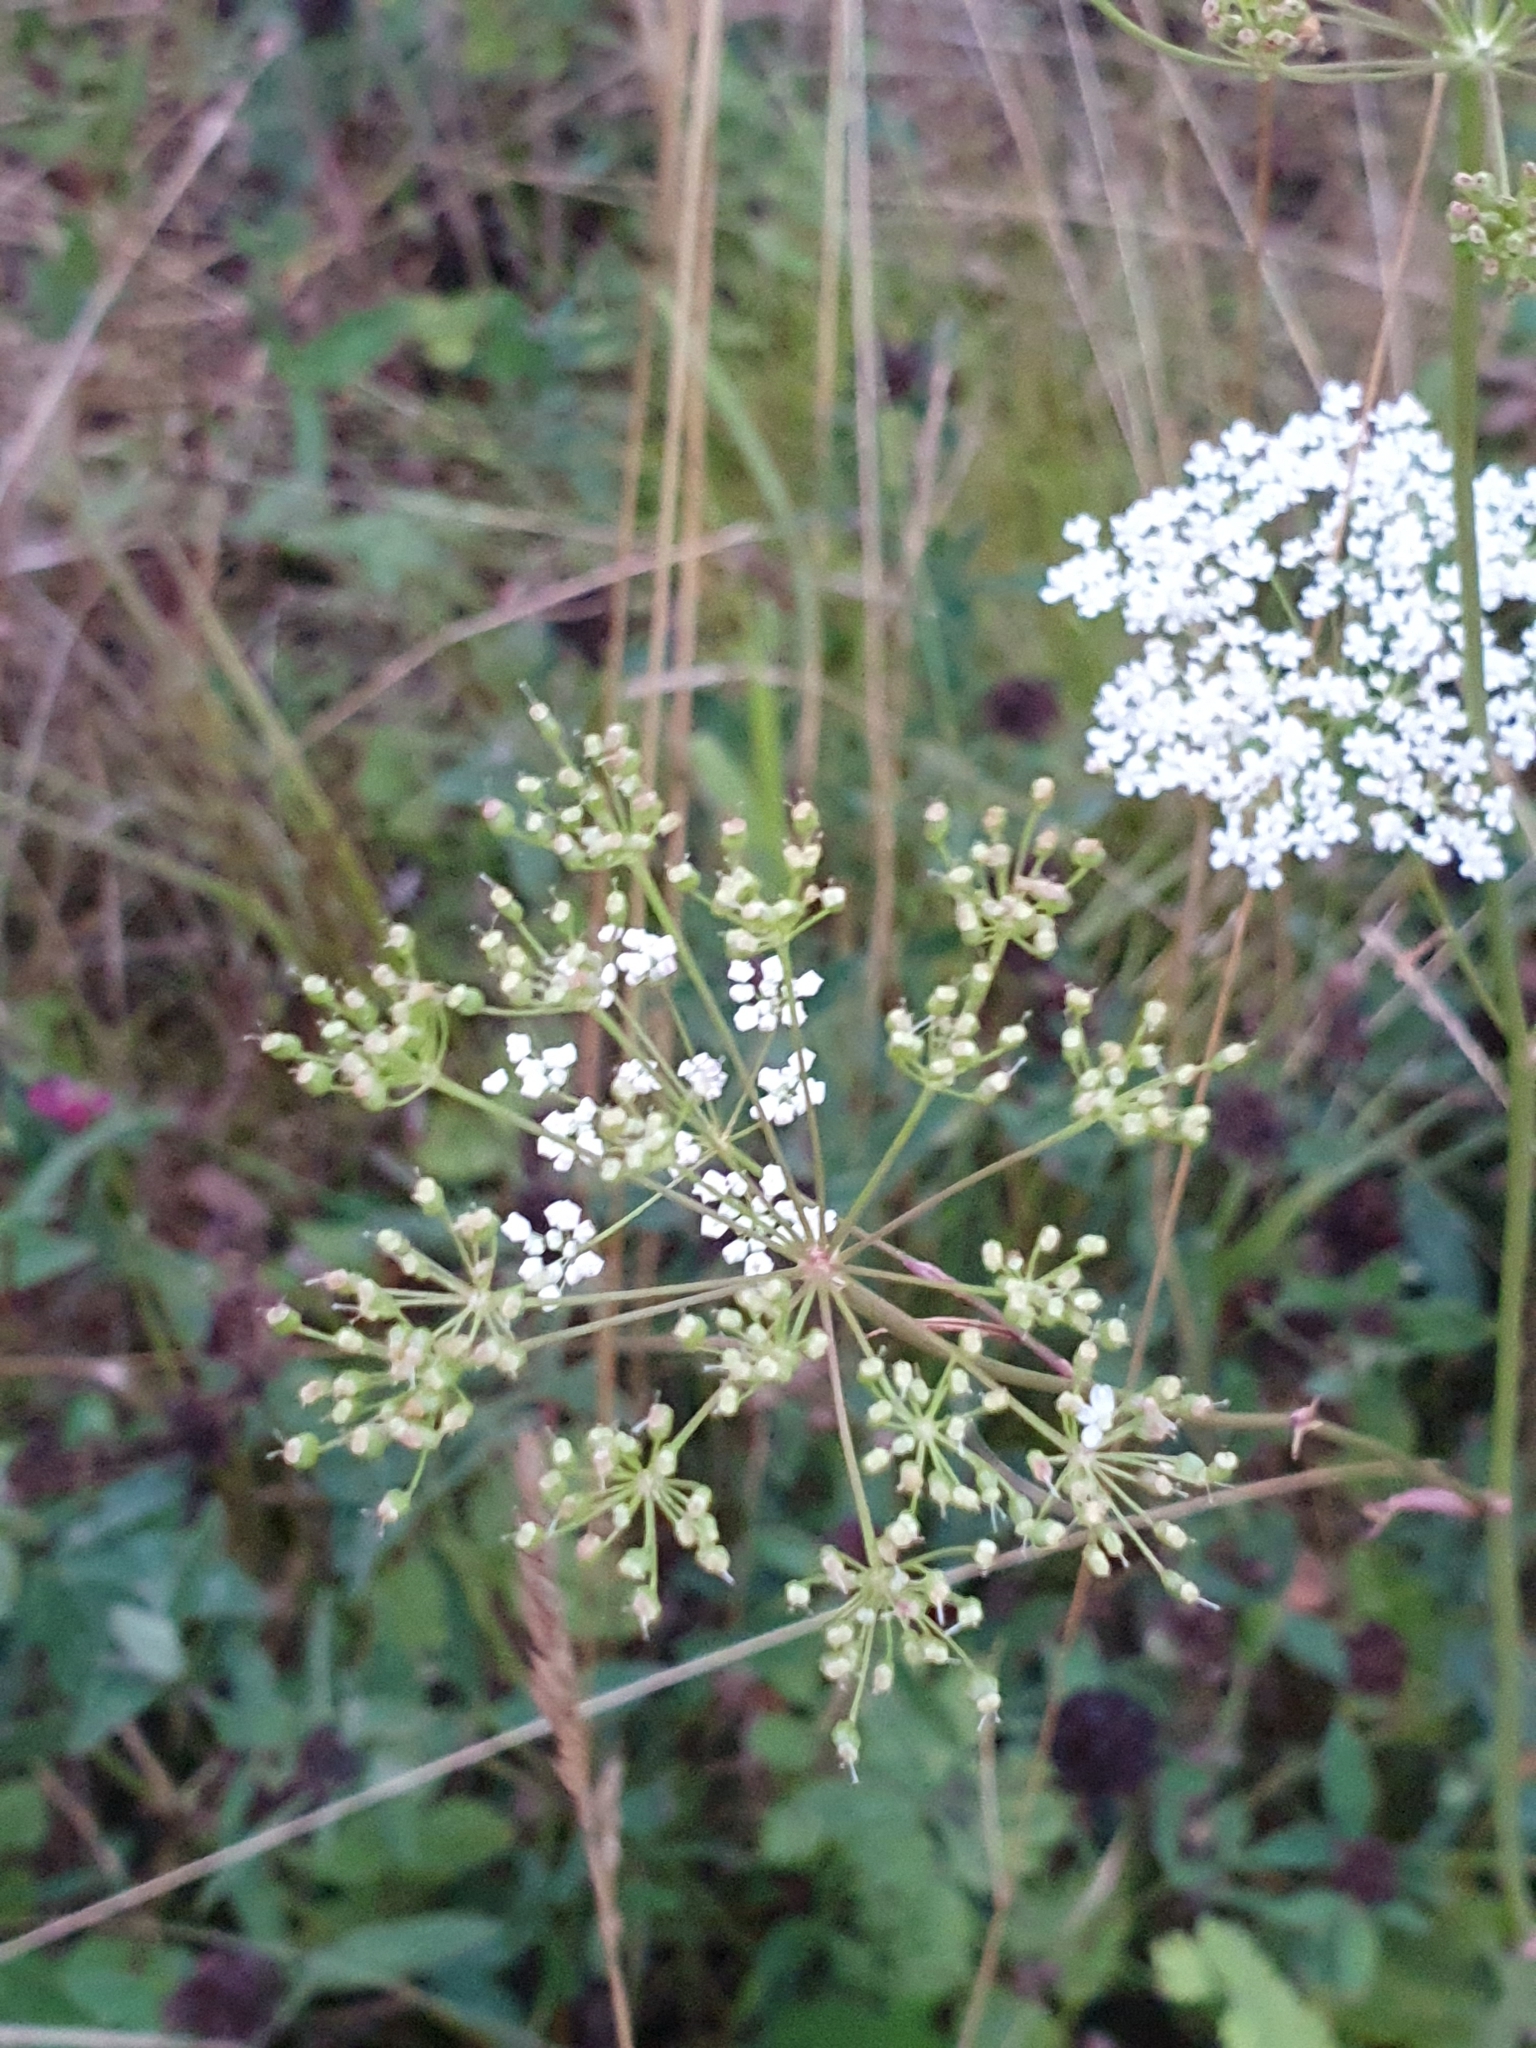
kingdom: Plantae
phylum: Tracheophyta
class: Magnoliopsida
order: Apiales
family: Apiaceae
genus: Pimpinella
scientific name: Pimpinella saxifraga
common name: Burnet-saxifrage
